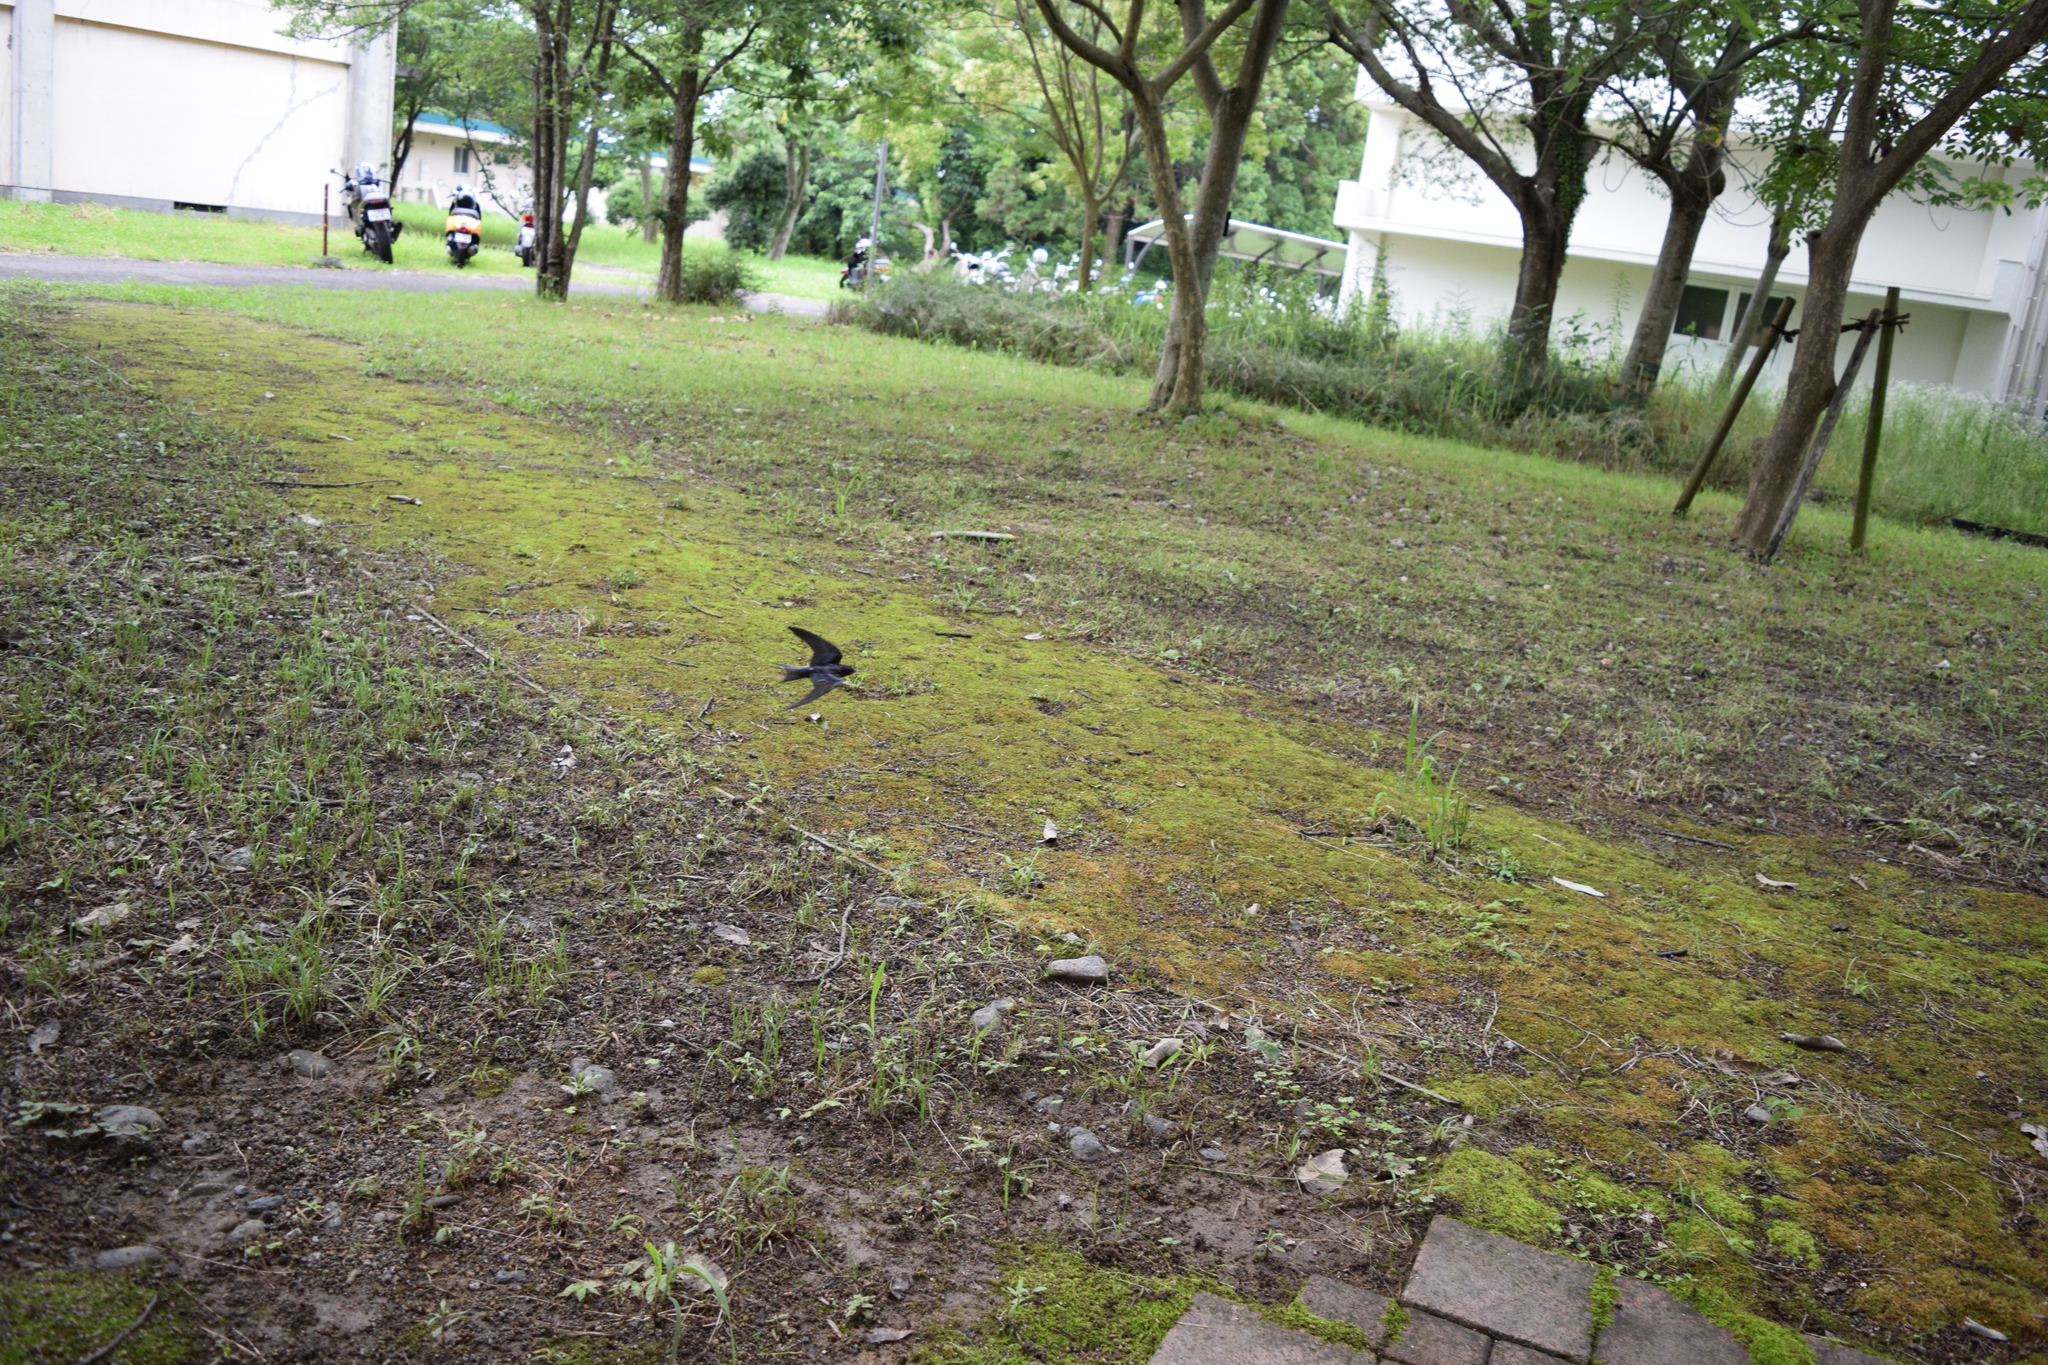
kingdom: Animalia
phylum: Chordata
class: Aves
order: Passeriformes
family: Hirundinidae
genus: Hirundo
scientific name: Hirundo rustica
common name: Barn swallow
